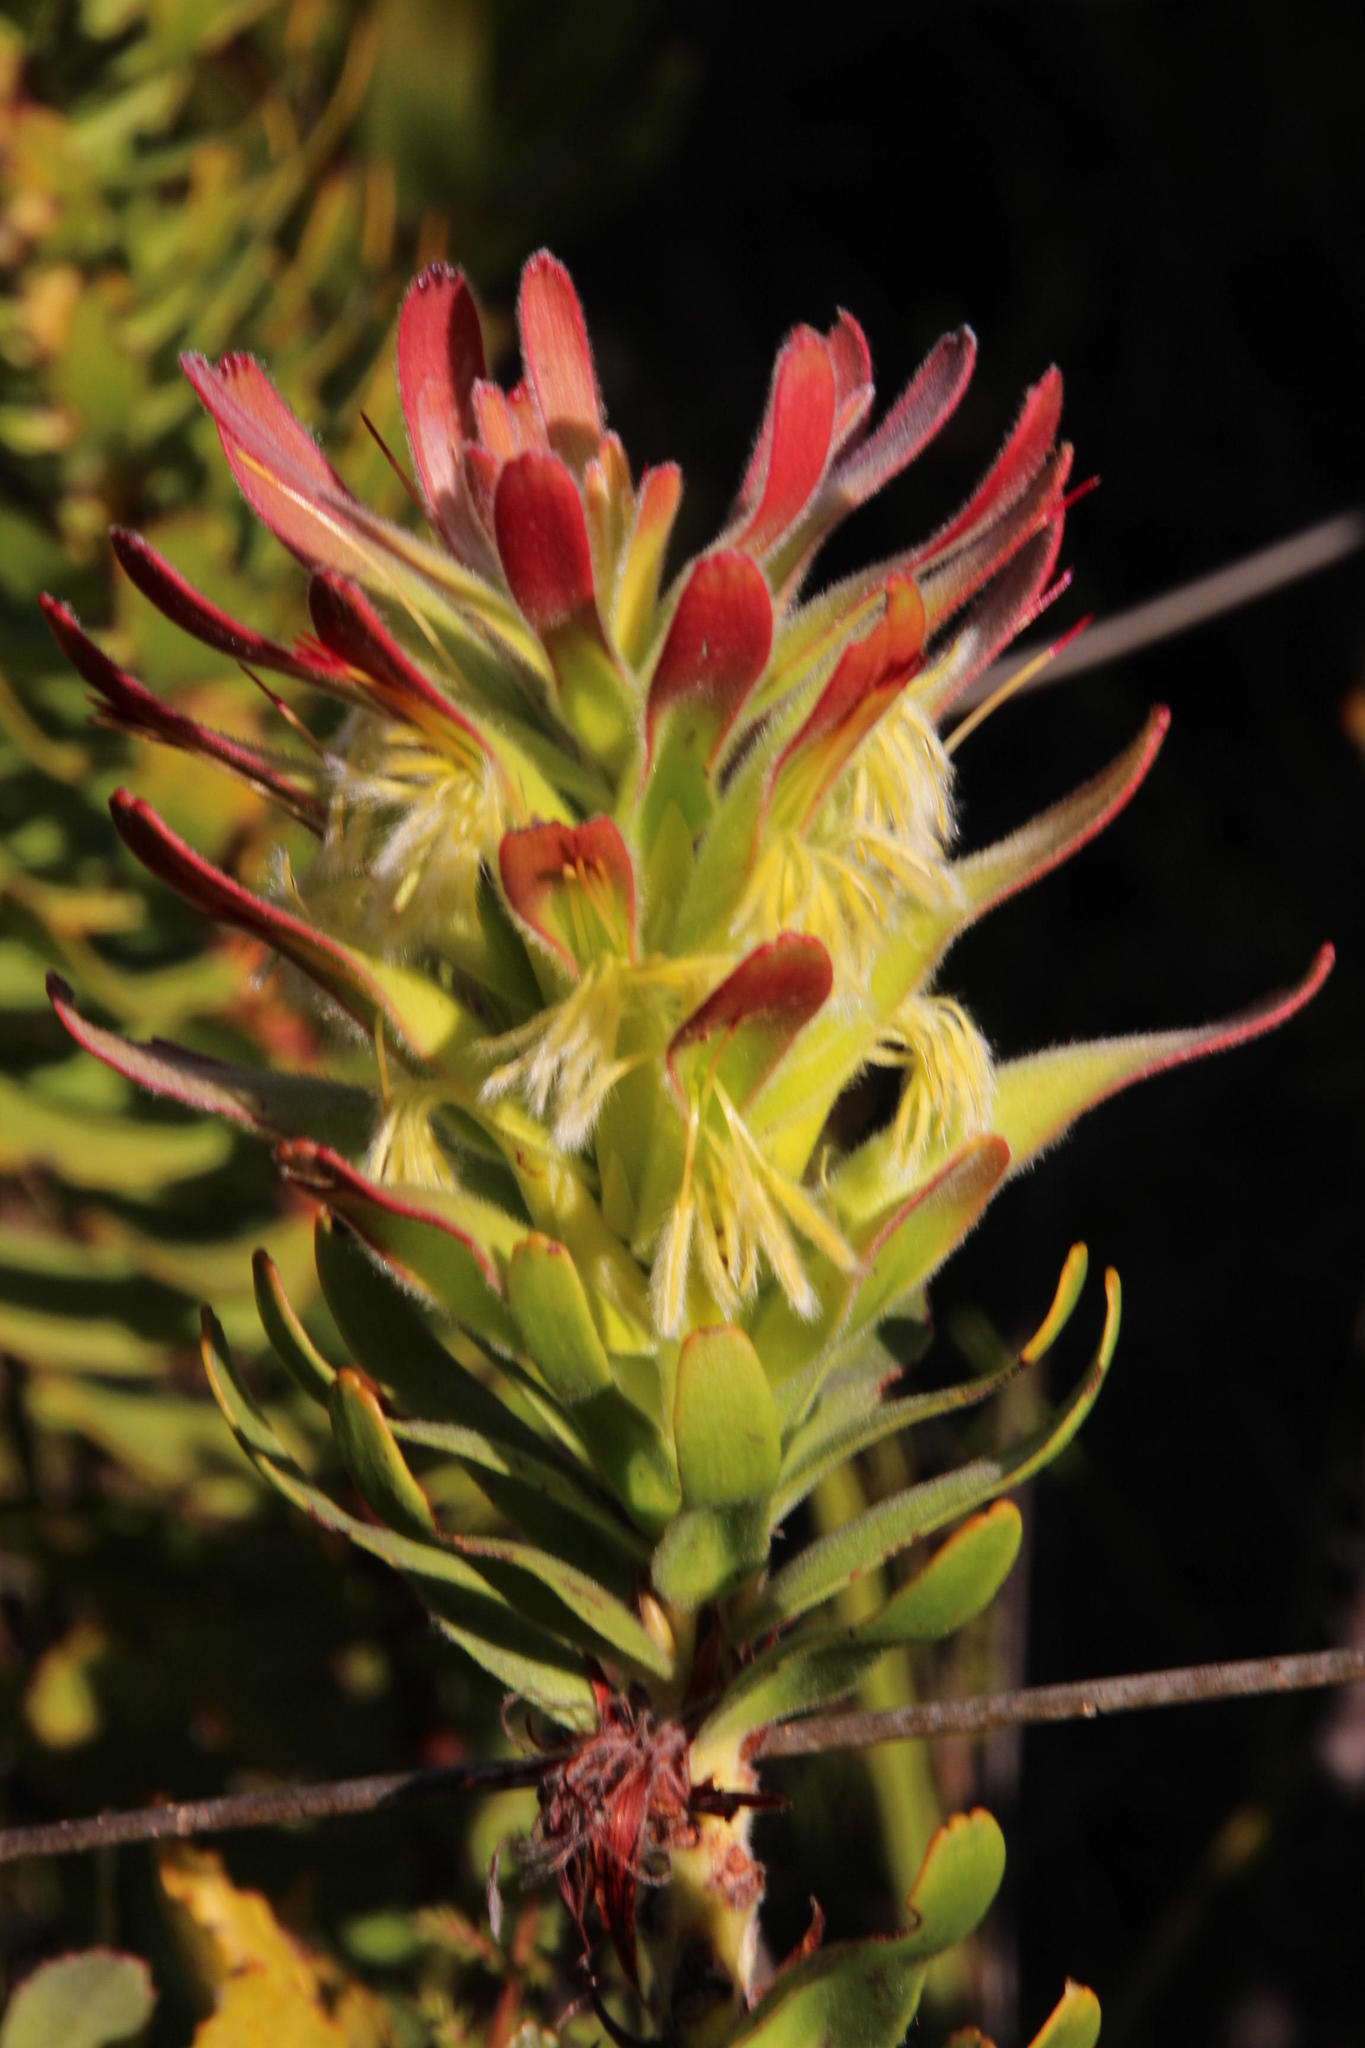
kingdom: Plantae
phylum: Tracheophyta
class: Magnoliopsida
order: Proteales
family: Proteaceae
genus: Mimetes
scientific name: Mimetes cucullatus
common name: Common pagoda
